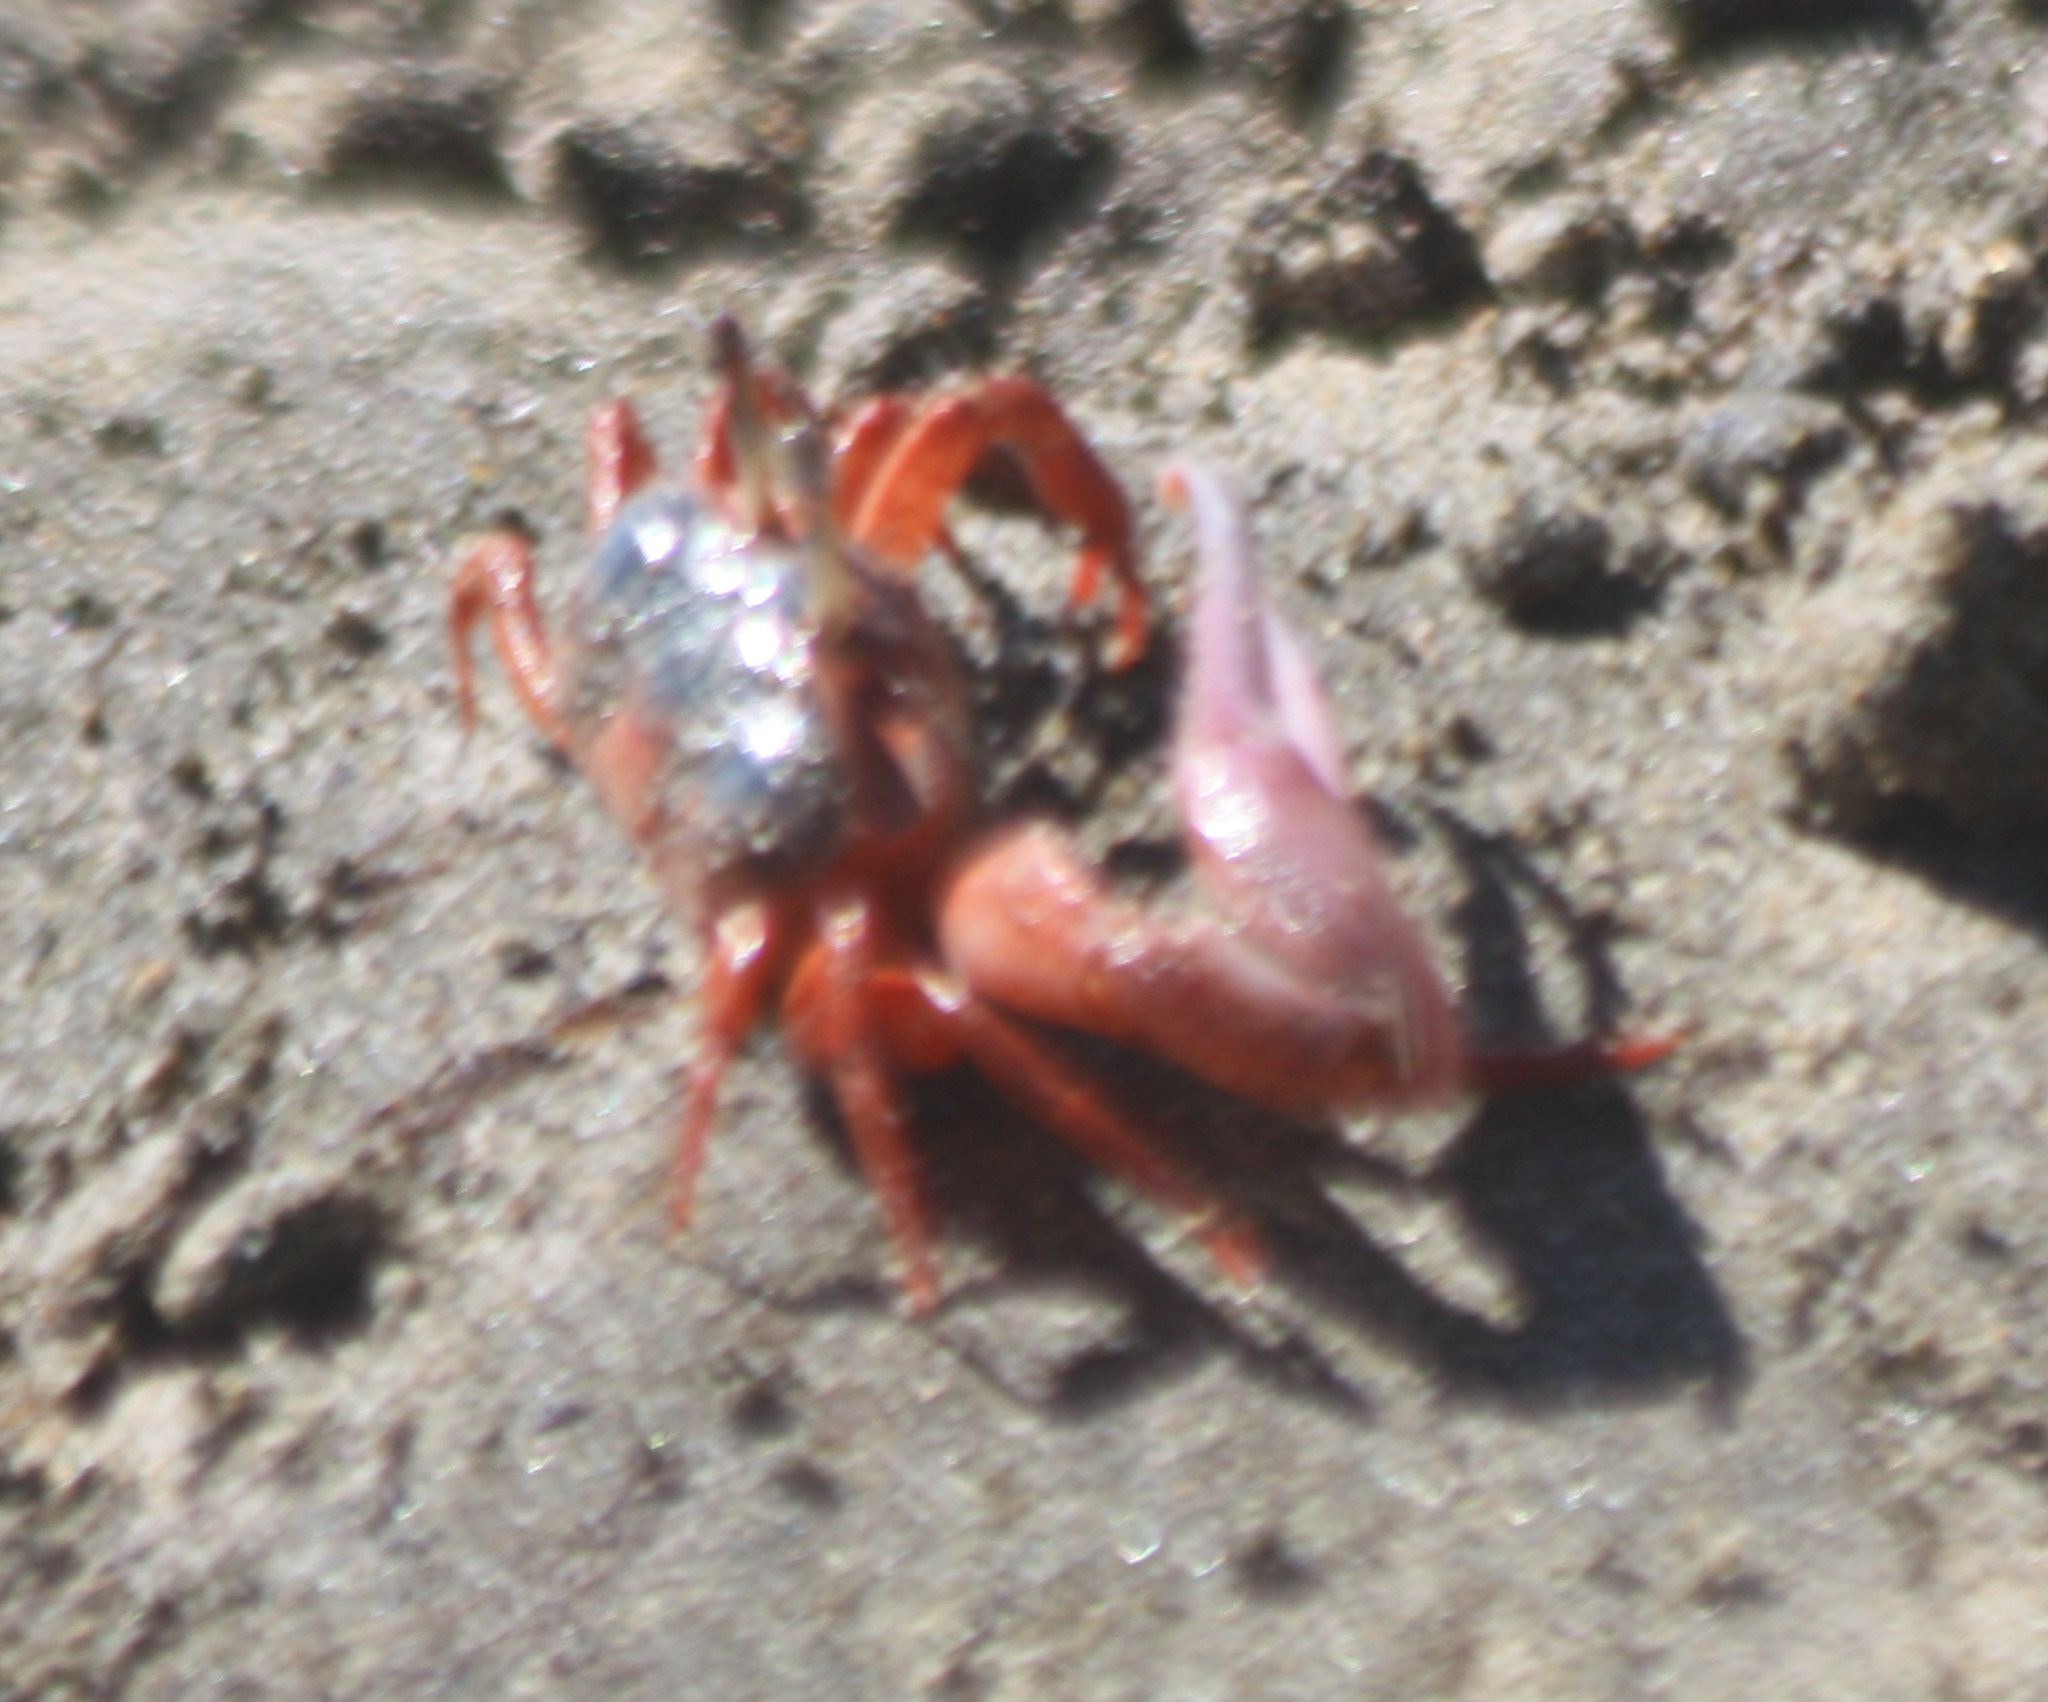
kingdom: Animalia
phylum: Arthropoda
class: Malacostraca
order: Decapoda
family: Ocypodidae
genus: Leptuca
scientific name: Leptuca stenodactylus
